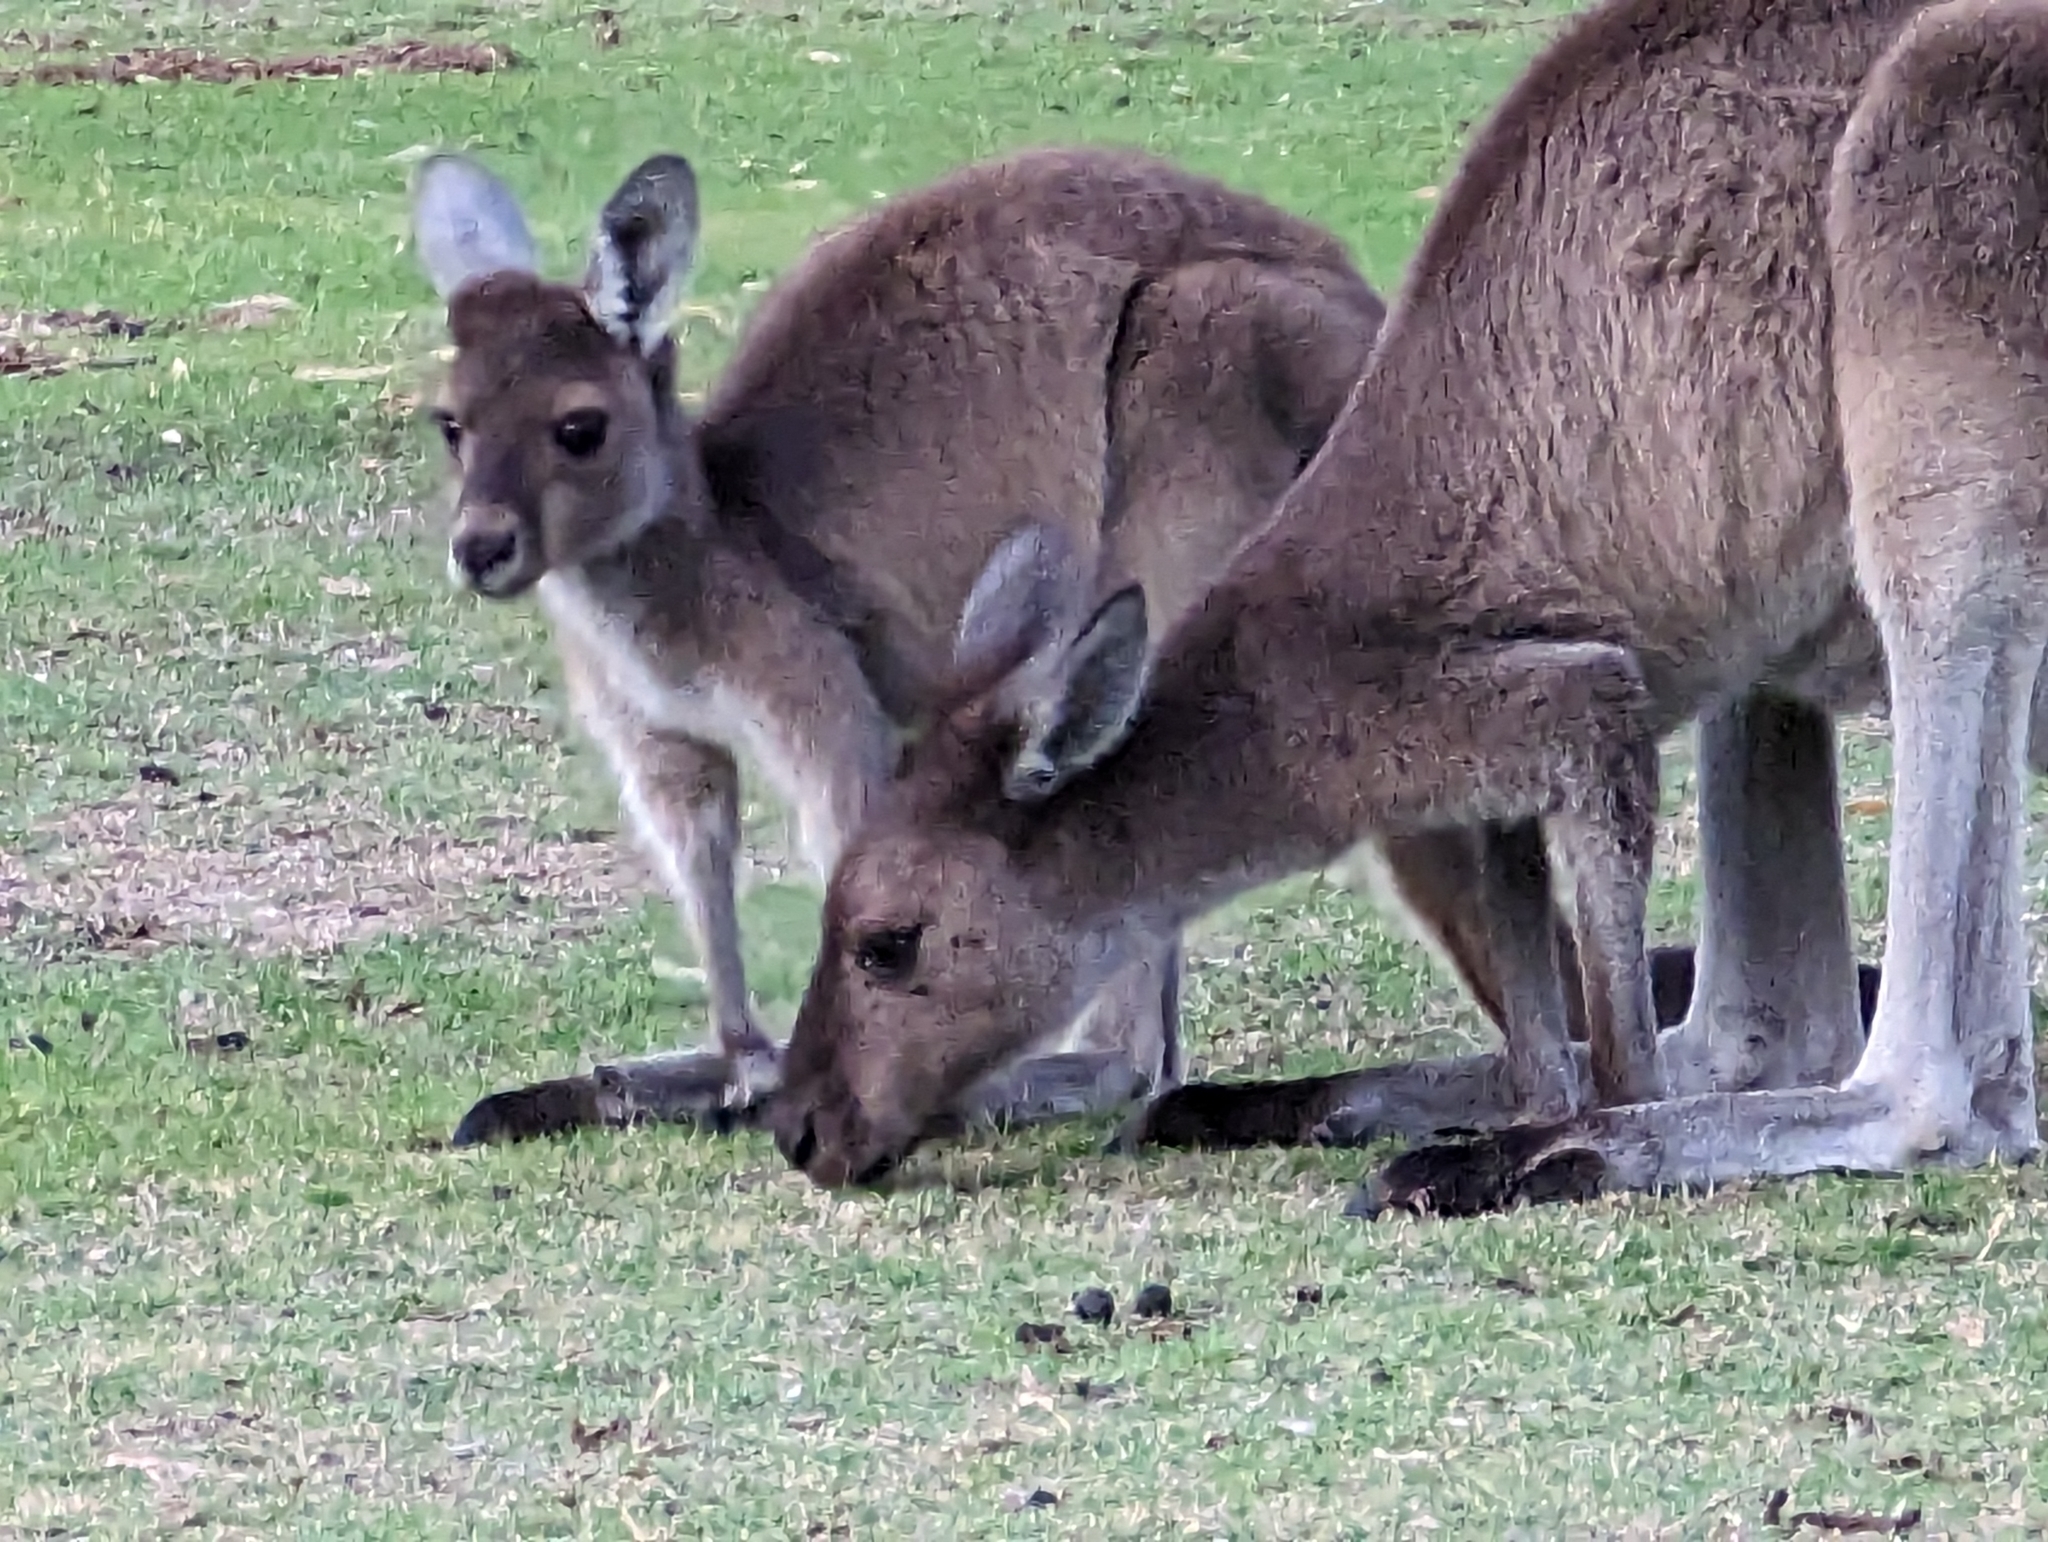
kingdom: Animalia
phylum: Chordata
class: Mammalia
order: Diprotodontia
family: Macropodidae
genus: Macropus
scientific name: Macropus fuliginosus
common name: Western grey kangaroo
